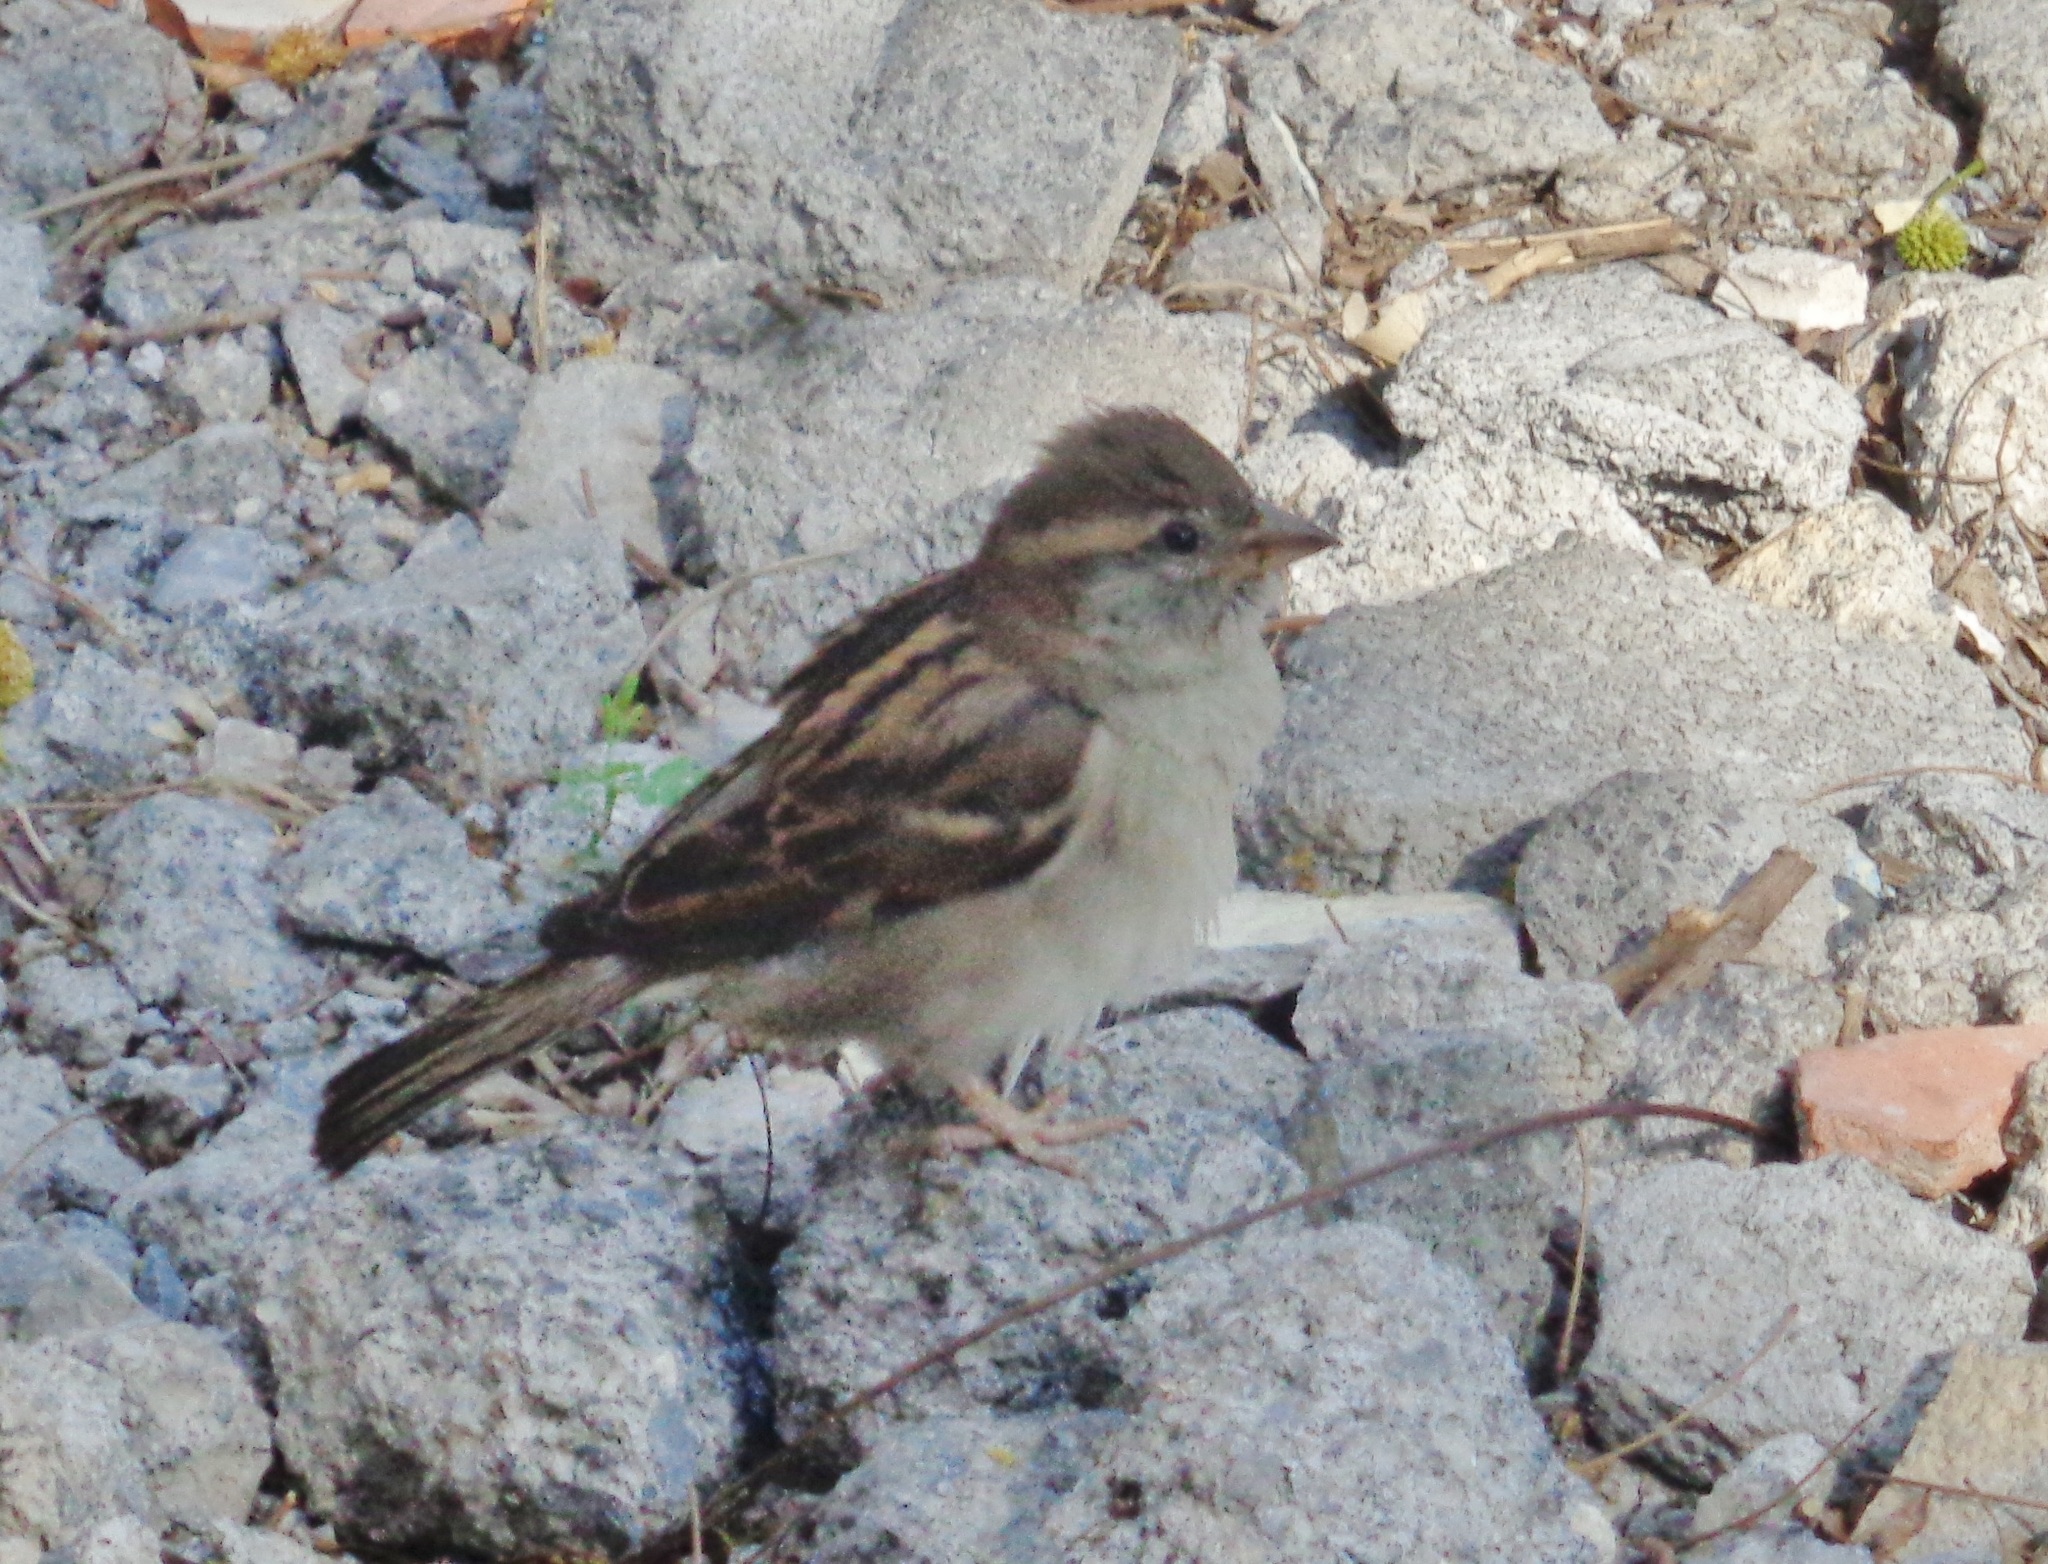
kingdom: Animalia
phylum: Chordata
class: Aves
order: Passeriformes
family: Passeridae
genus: Passer
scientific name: Passer domesticus
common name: House sparrow
